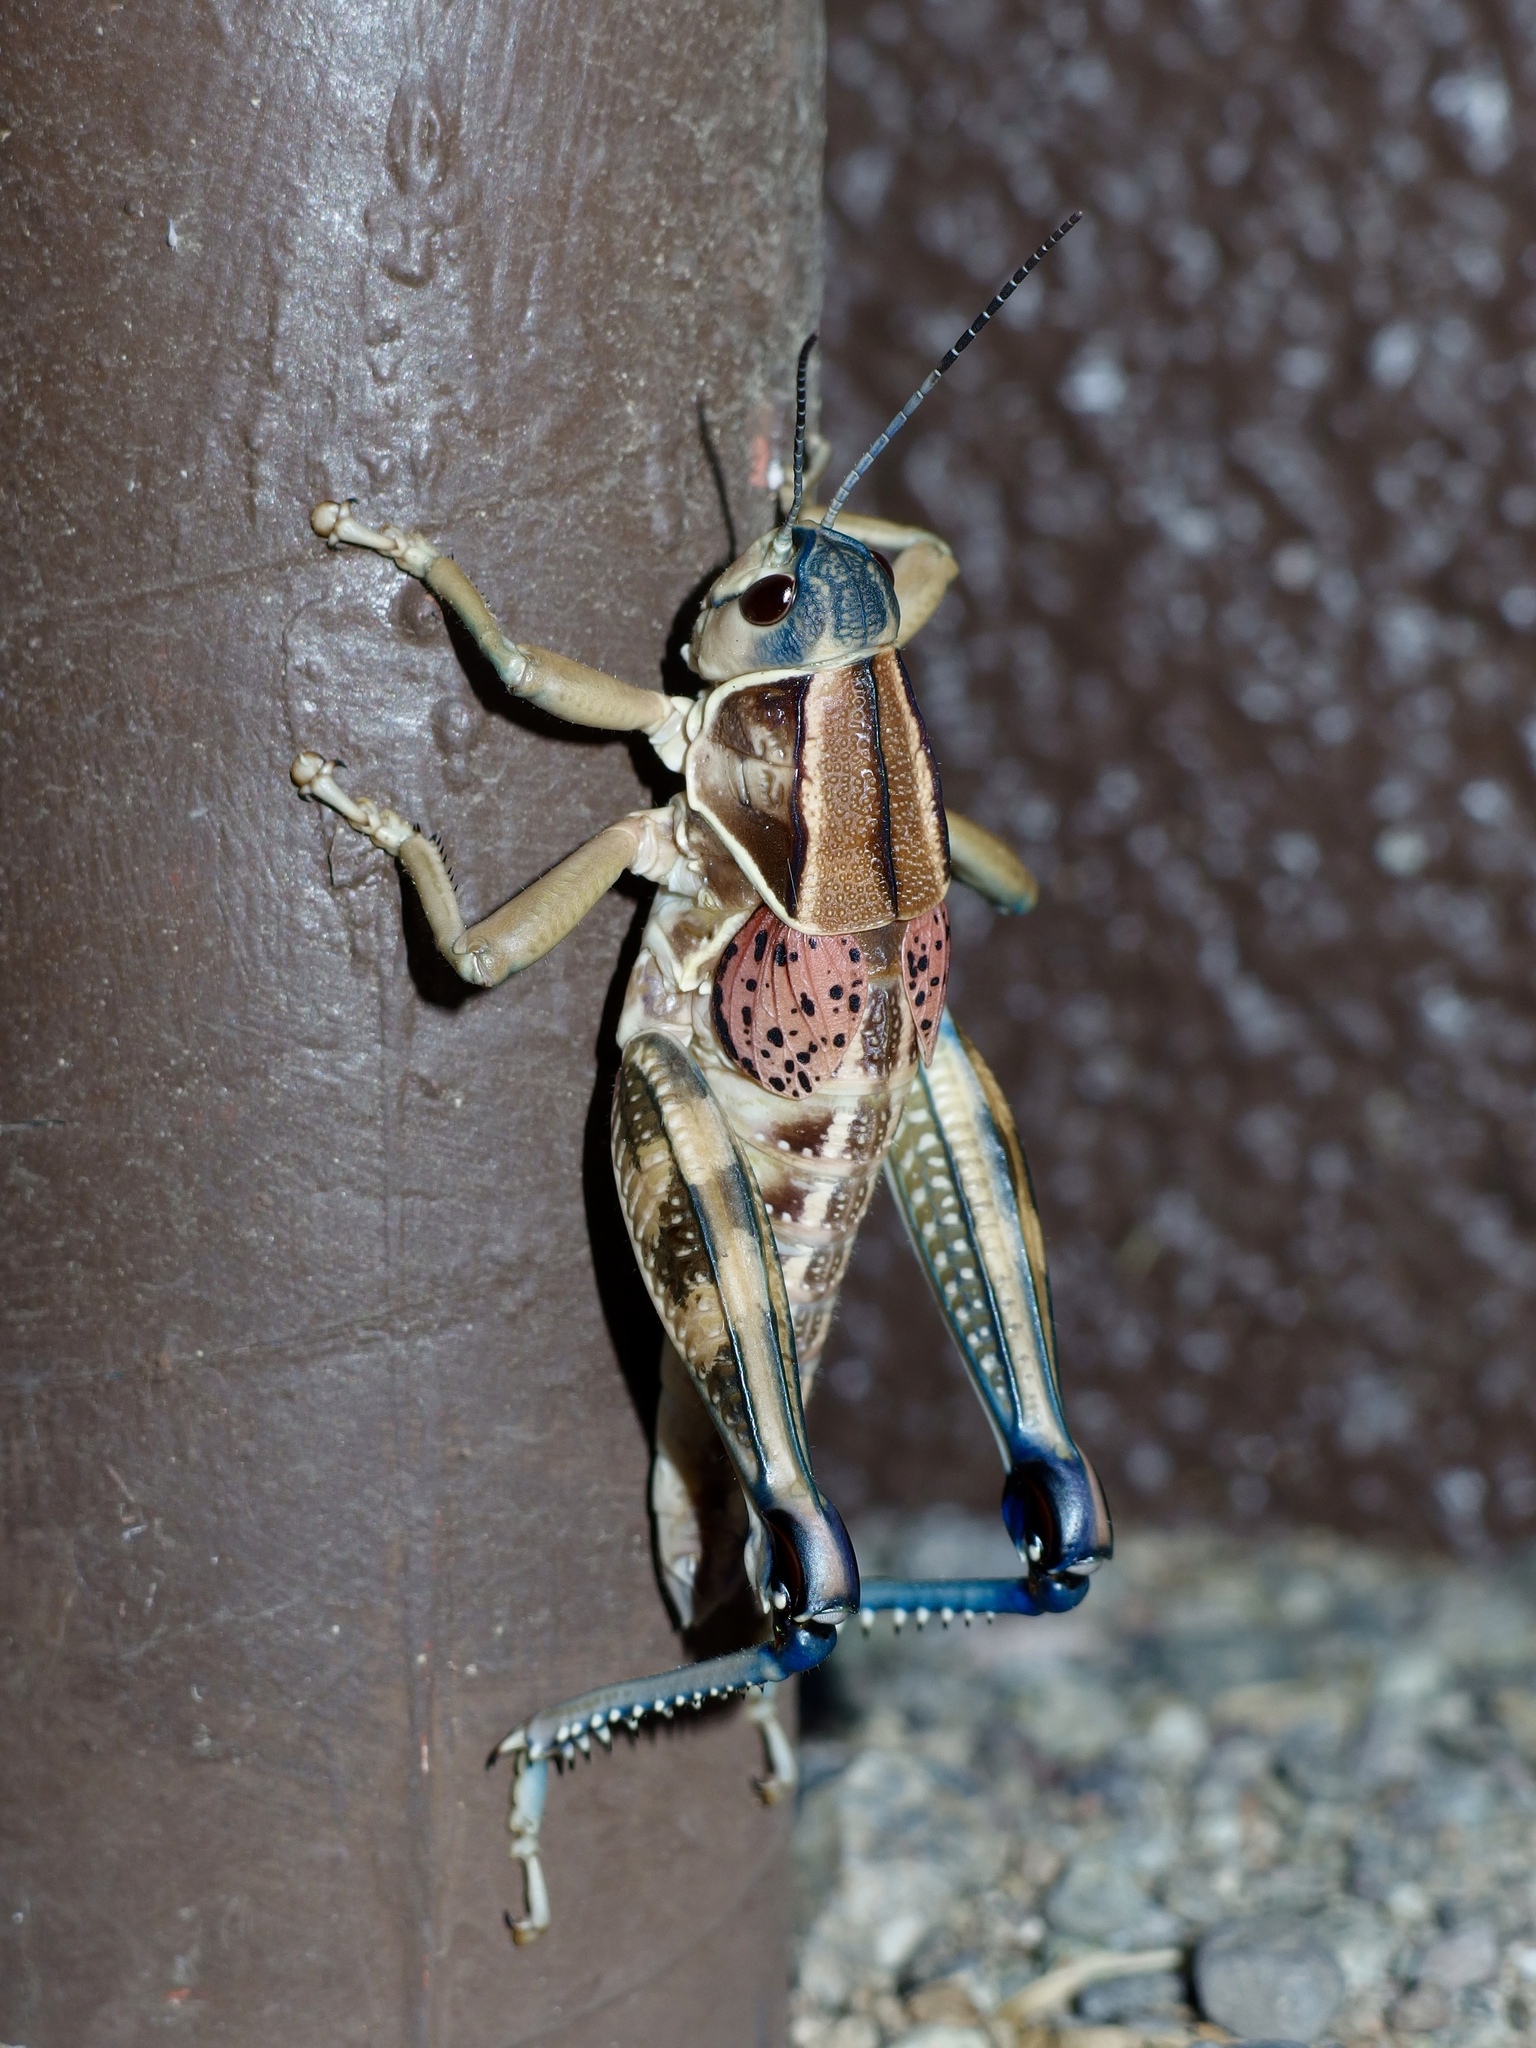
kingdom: Animalia
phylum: Arthropoda
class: Insecta
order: Orthoptera
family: Romaleidae
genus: Brachystola
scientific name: Brachystola magna
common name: Plains lubber grasshopper
